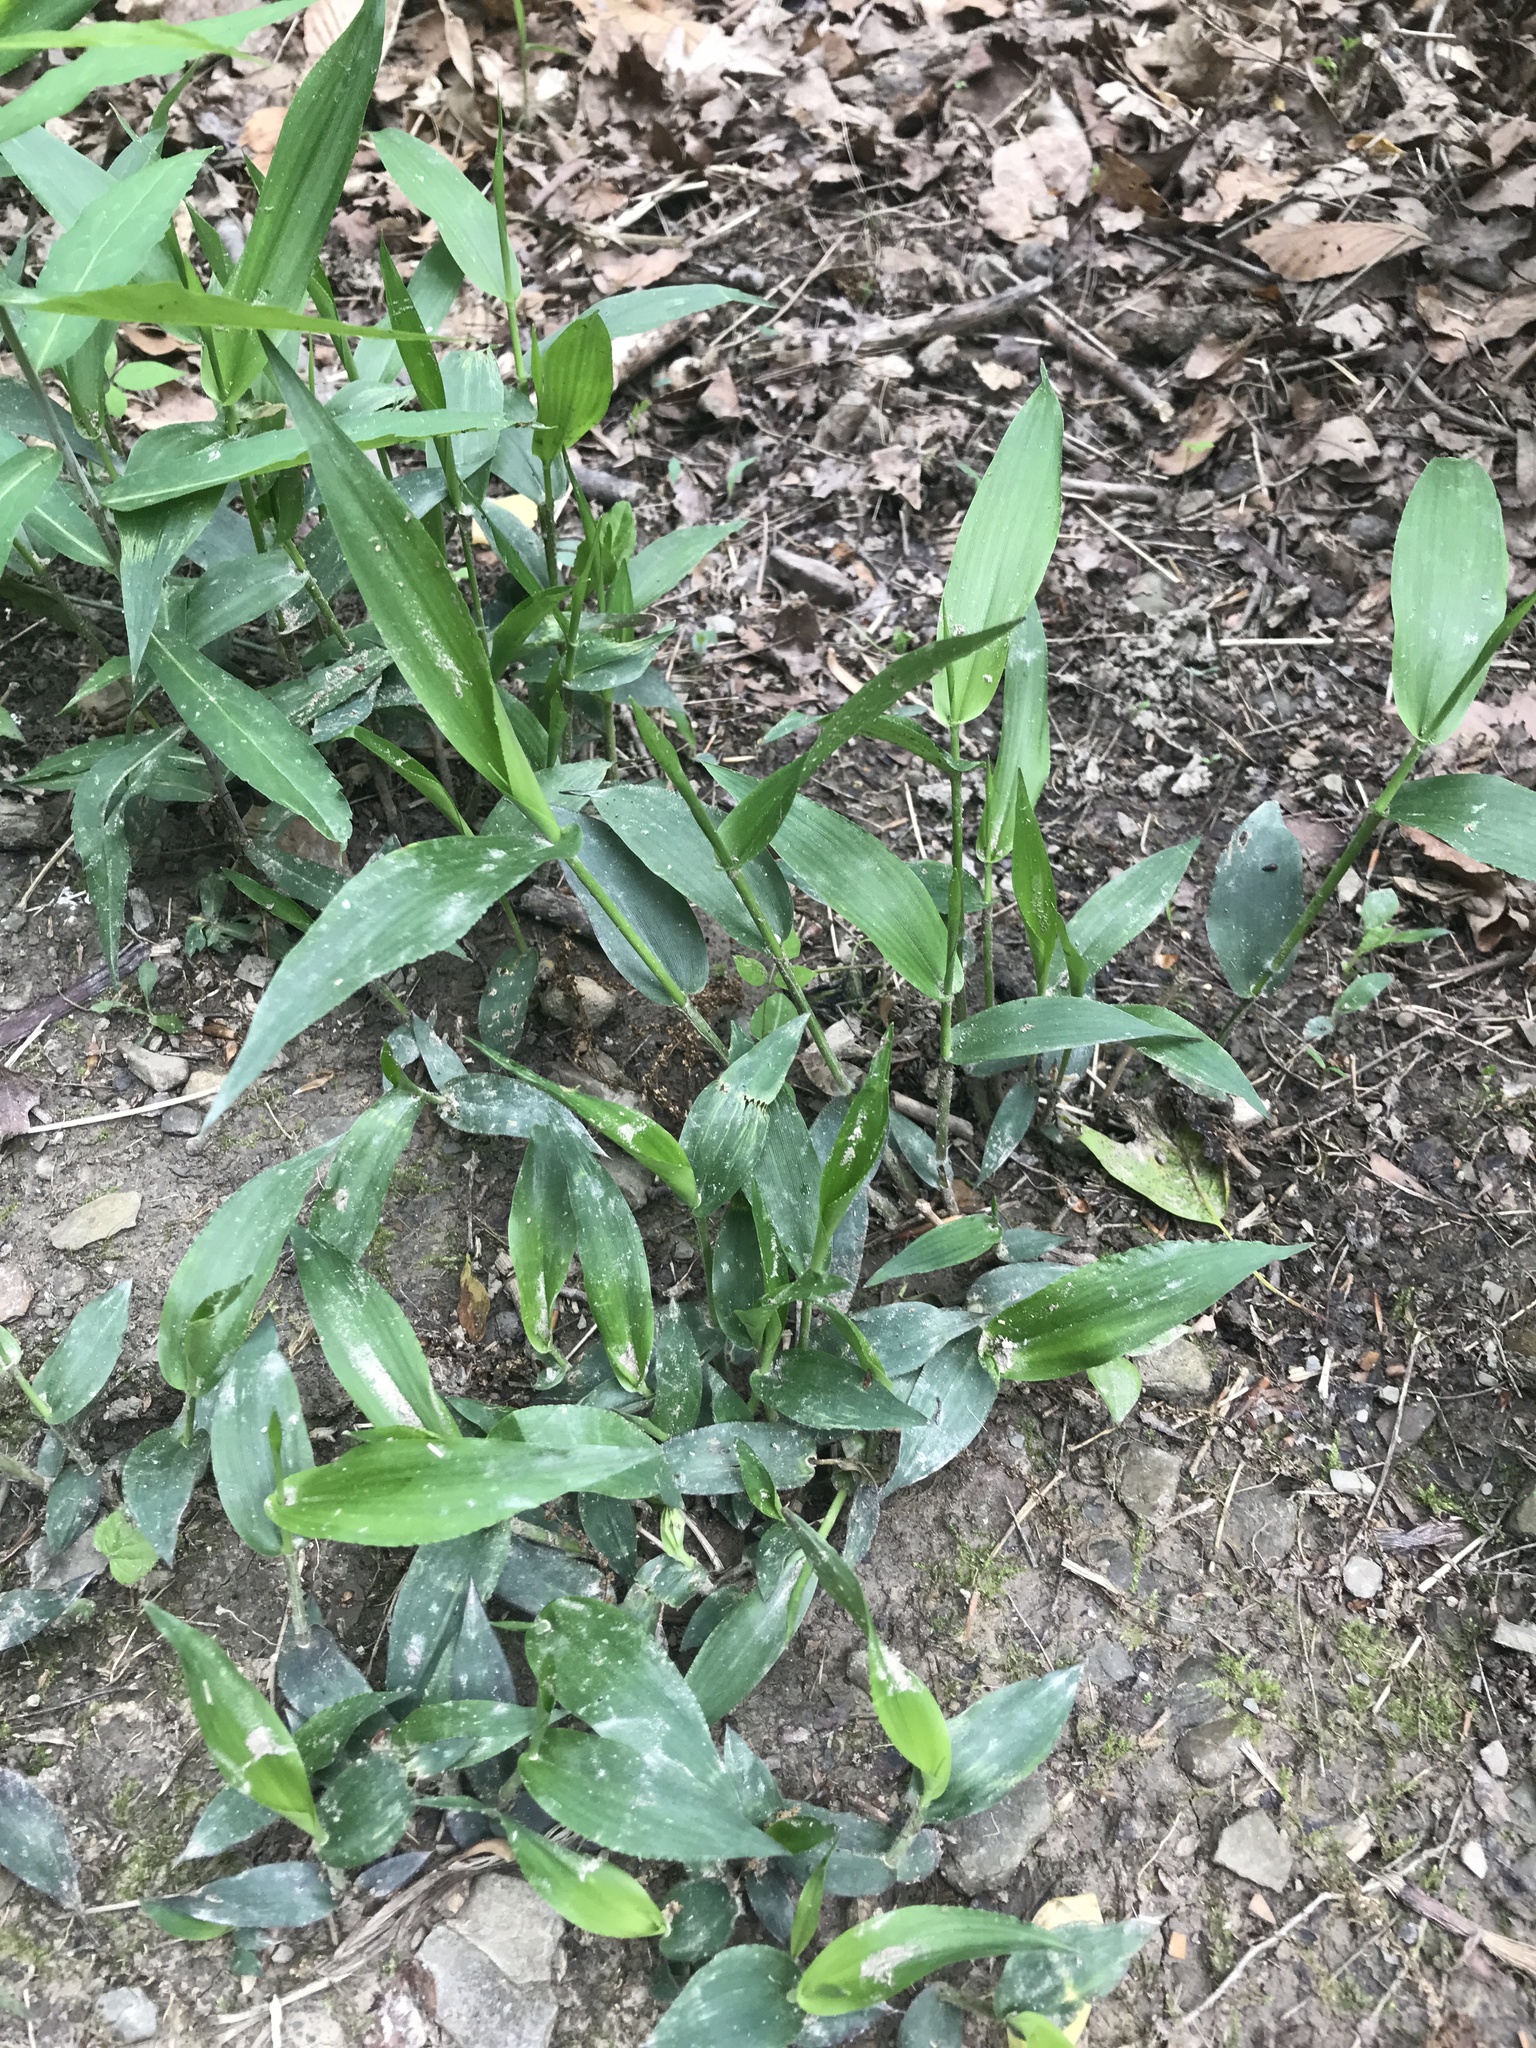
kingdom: Plantae
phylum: Tracheophyta
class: Liliopsida
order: Poales
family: Poaceae
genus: Dichanthelium
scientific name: Dichanthelium boscii
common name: Bosc's panic grass
